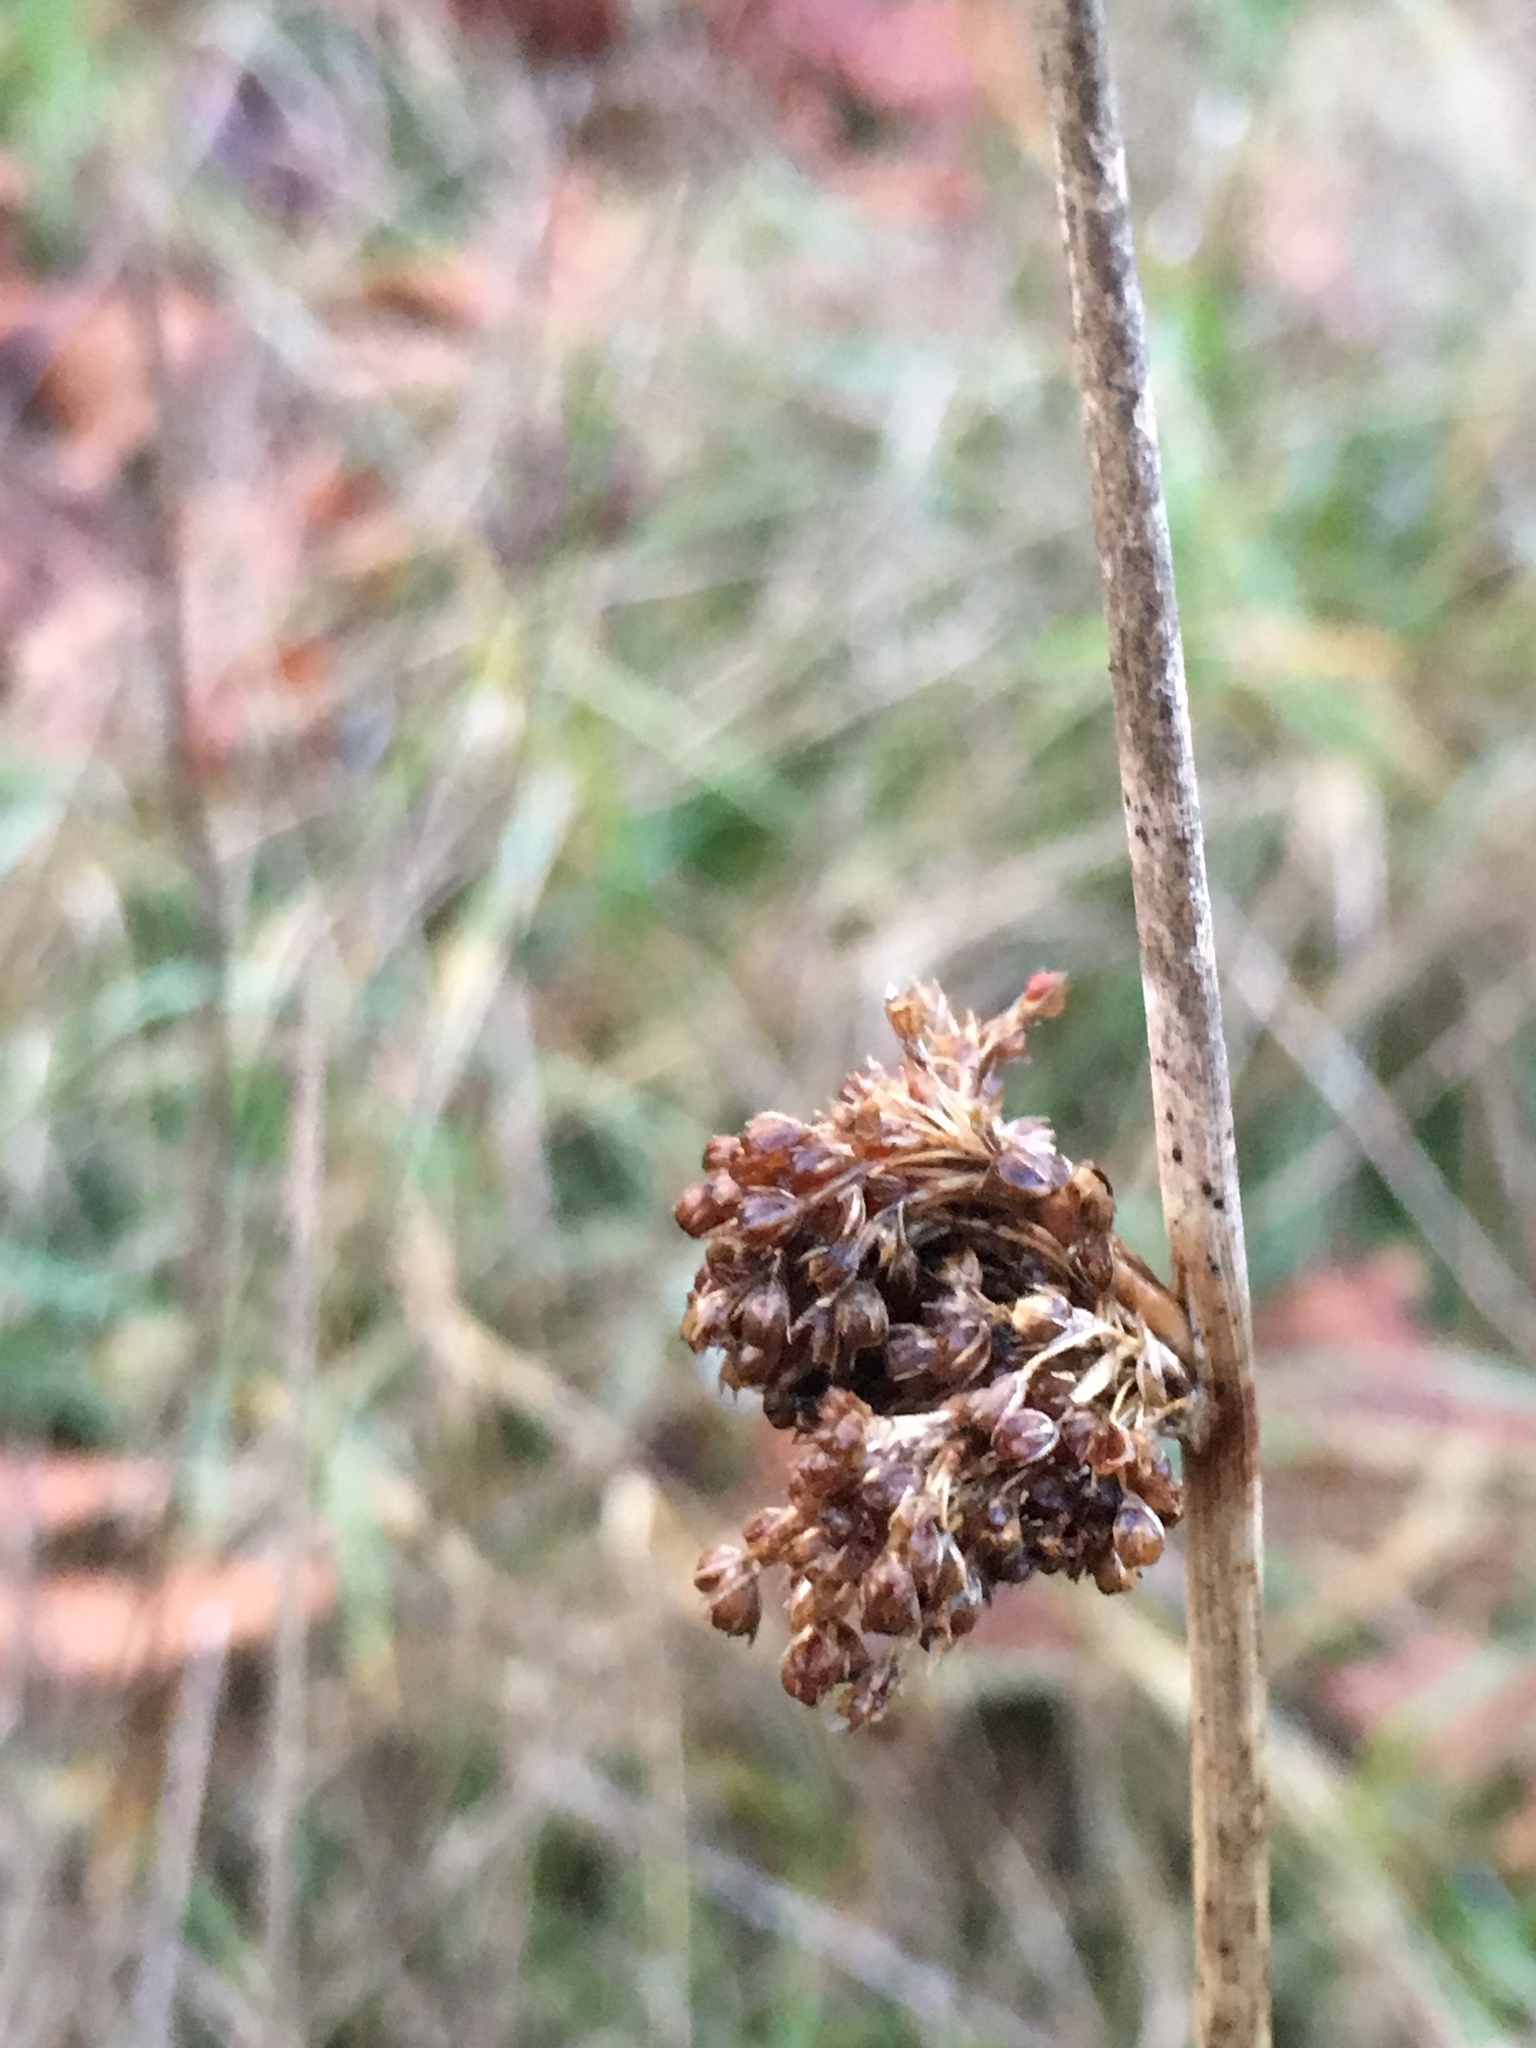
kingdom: Plantae
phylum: Tracheophyta
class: Liliopsida
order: Poales
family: Juncaceae
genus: Juncus
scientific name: Juncus effusus
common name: Soft rush
